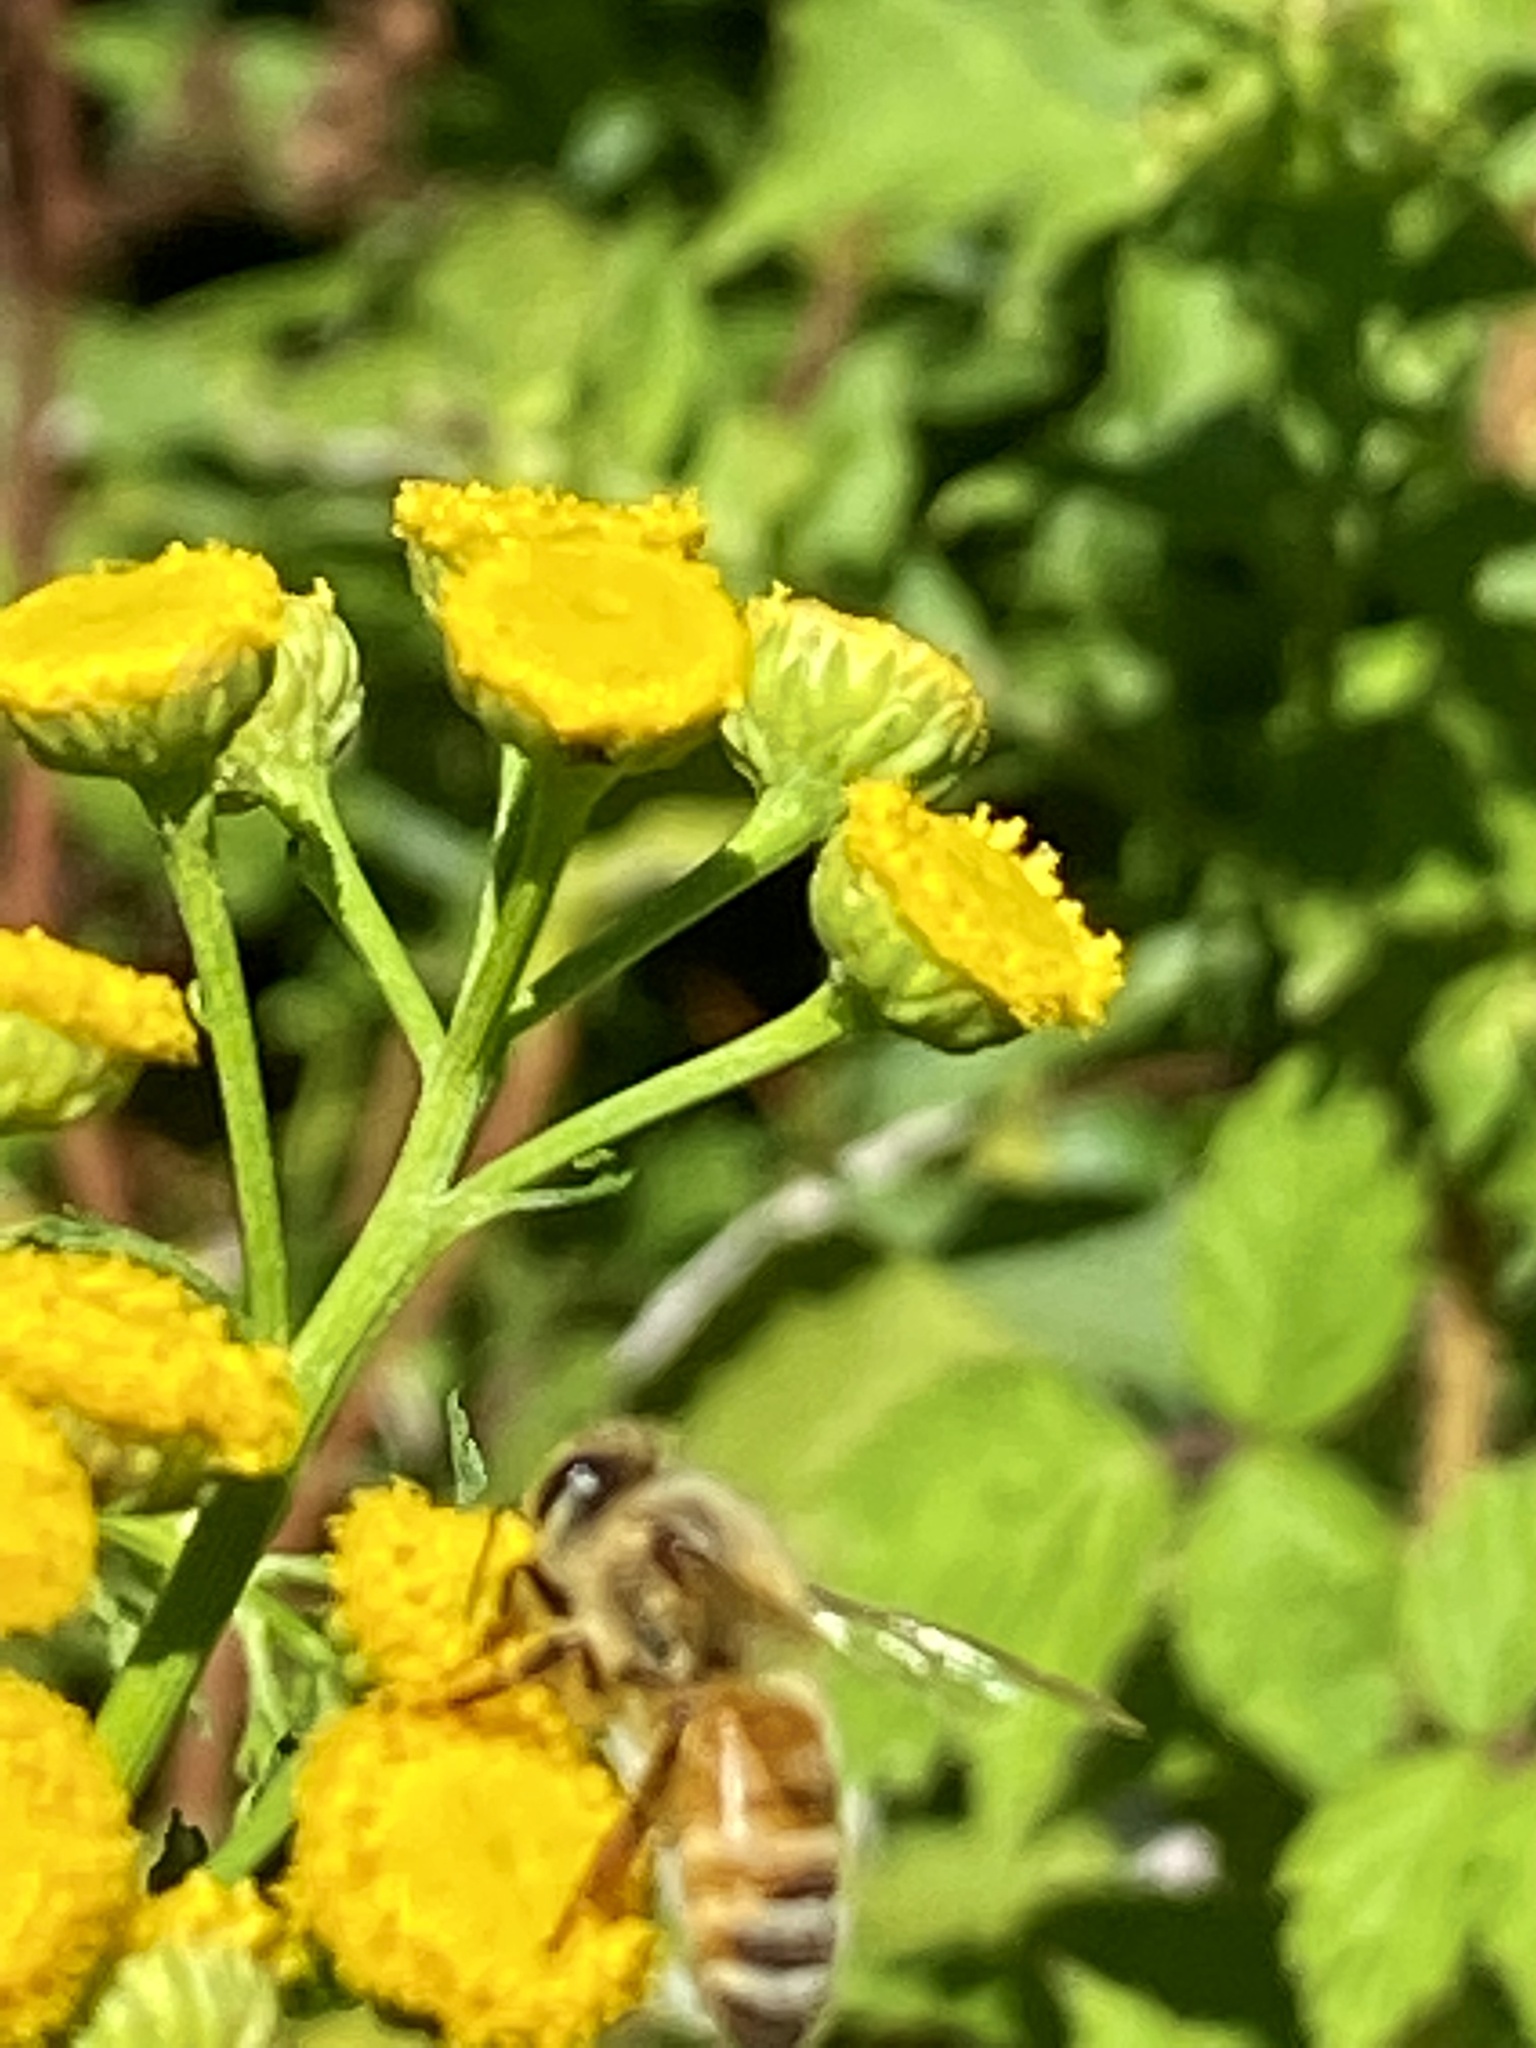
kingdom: Animalia
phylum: Arthropoda
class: Insecta
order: Hymenoptera
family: Apidae
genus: Apis
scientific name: Apis mellifera
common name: Honey bee
